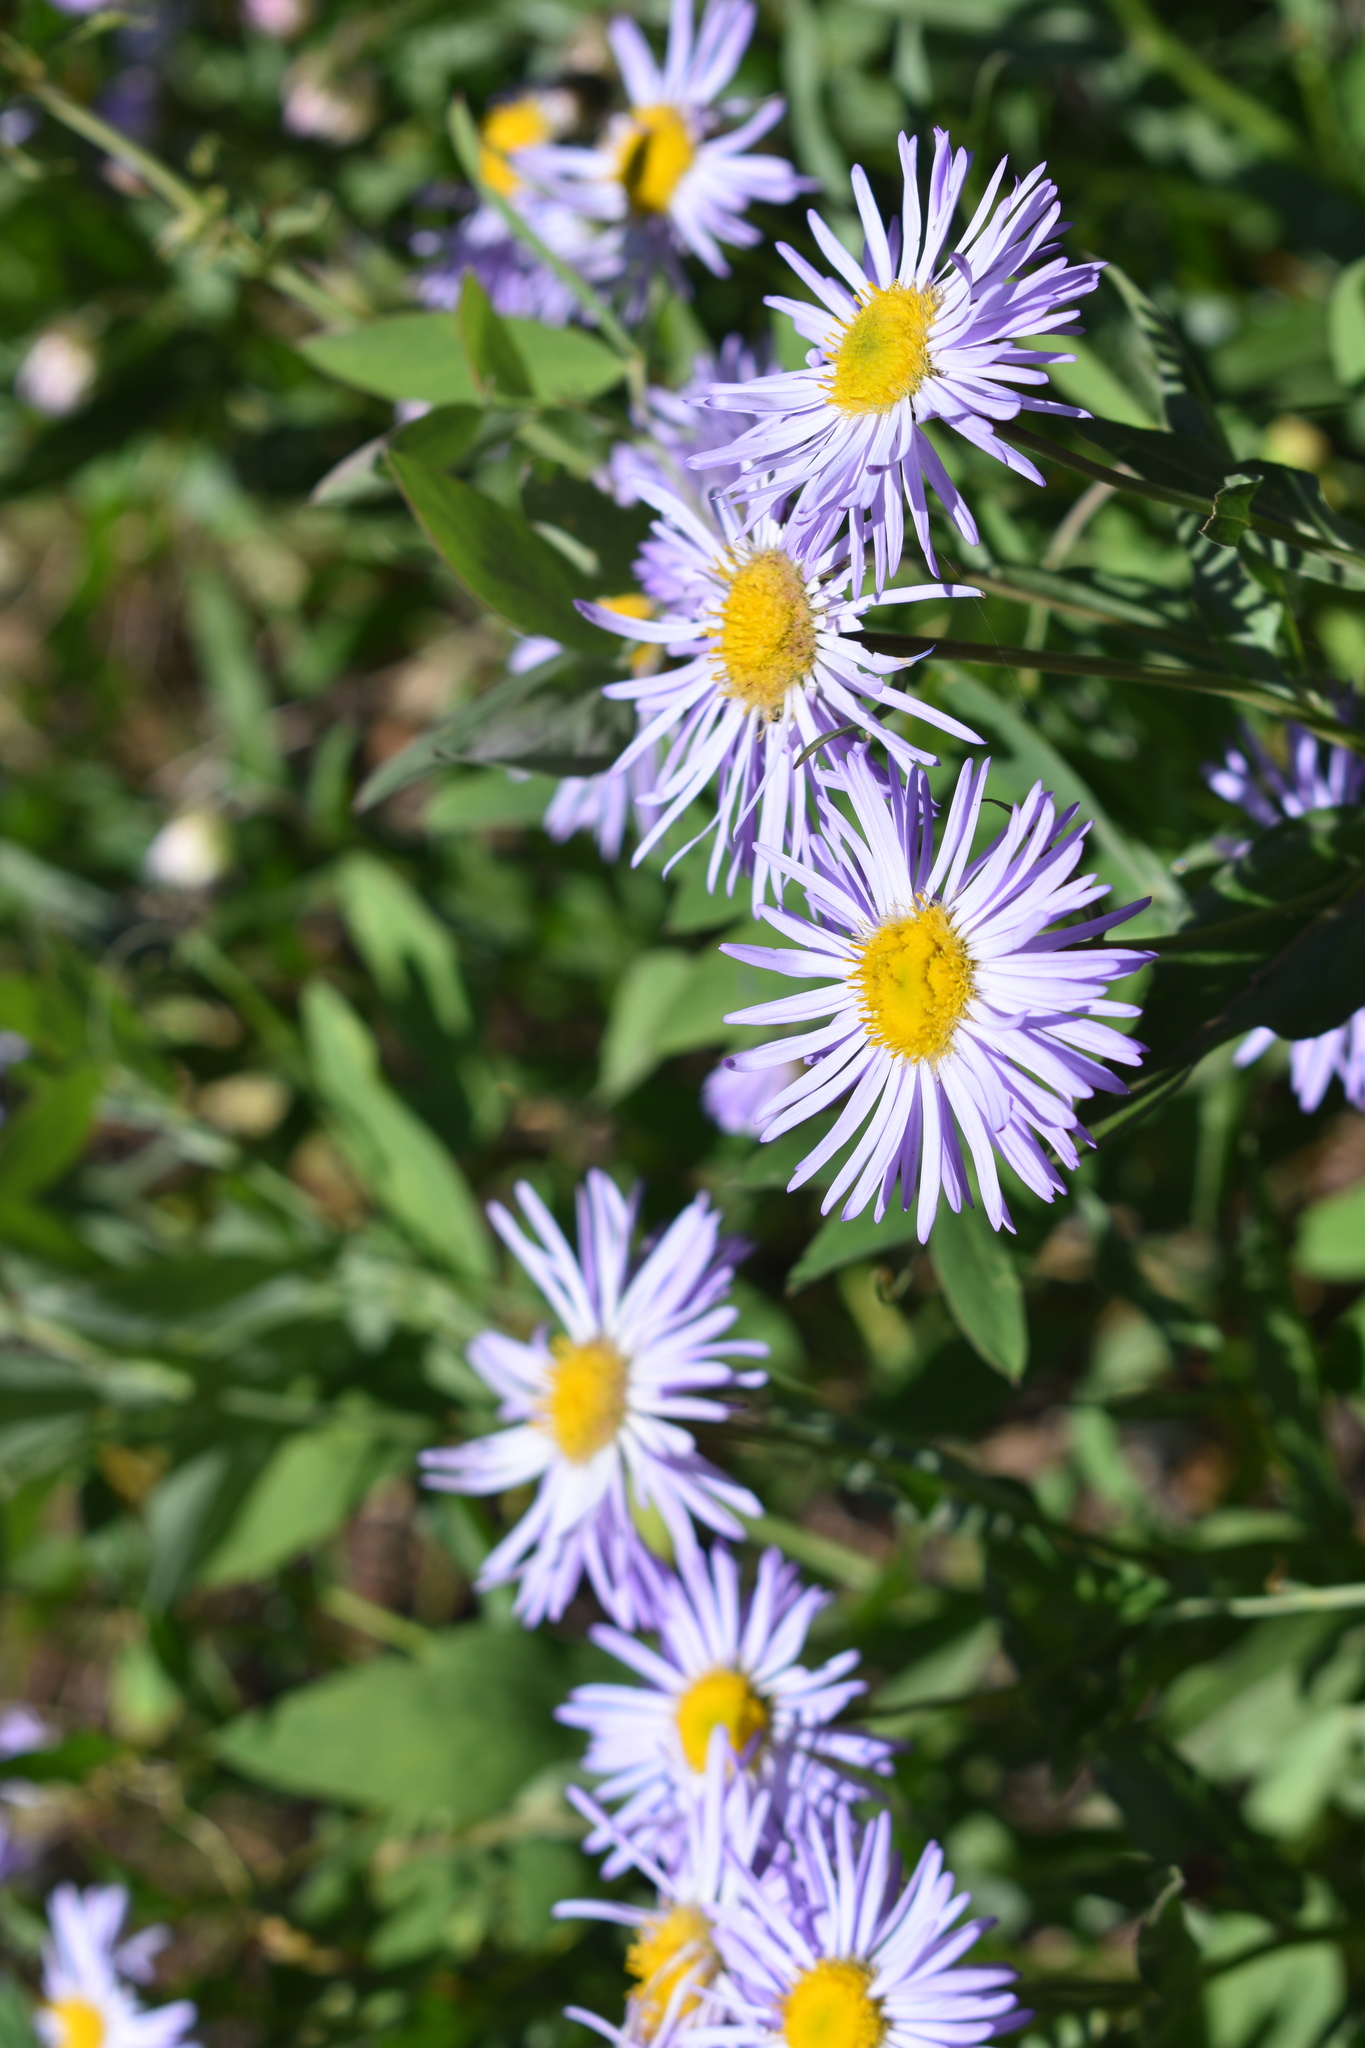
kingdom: Plantae
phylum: Tracheophyta
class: Magnoliopsida
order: Asterales
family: Asteraceae
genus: Erigeron
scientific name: Erigeron speciosus
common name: Aspen fleabane
